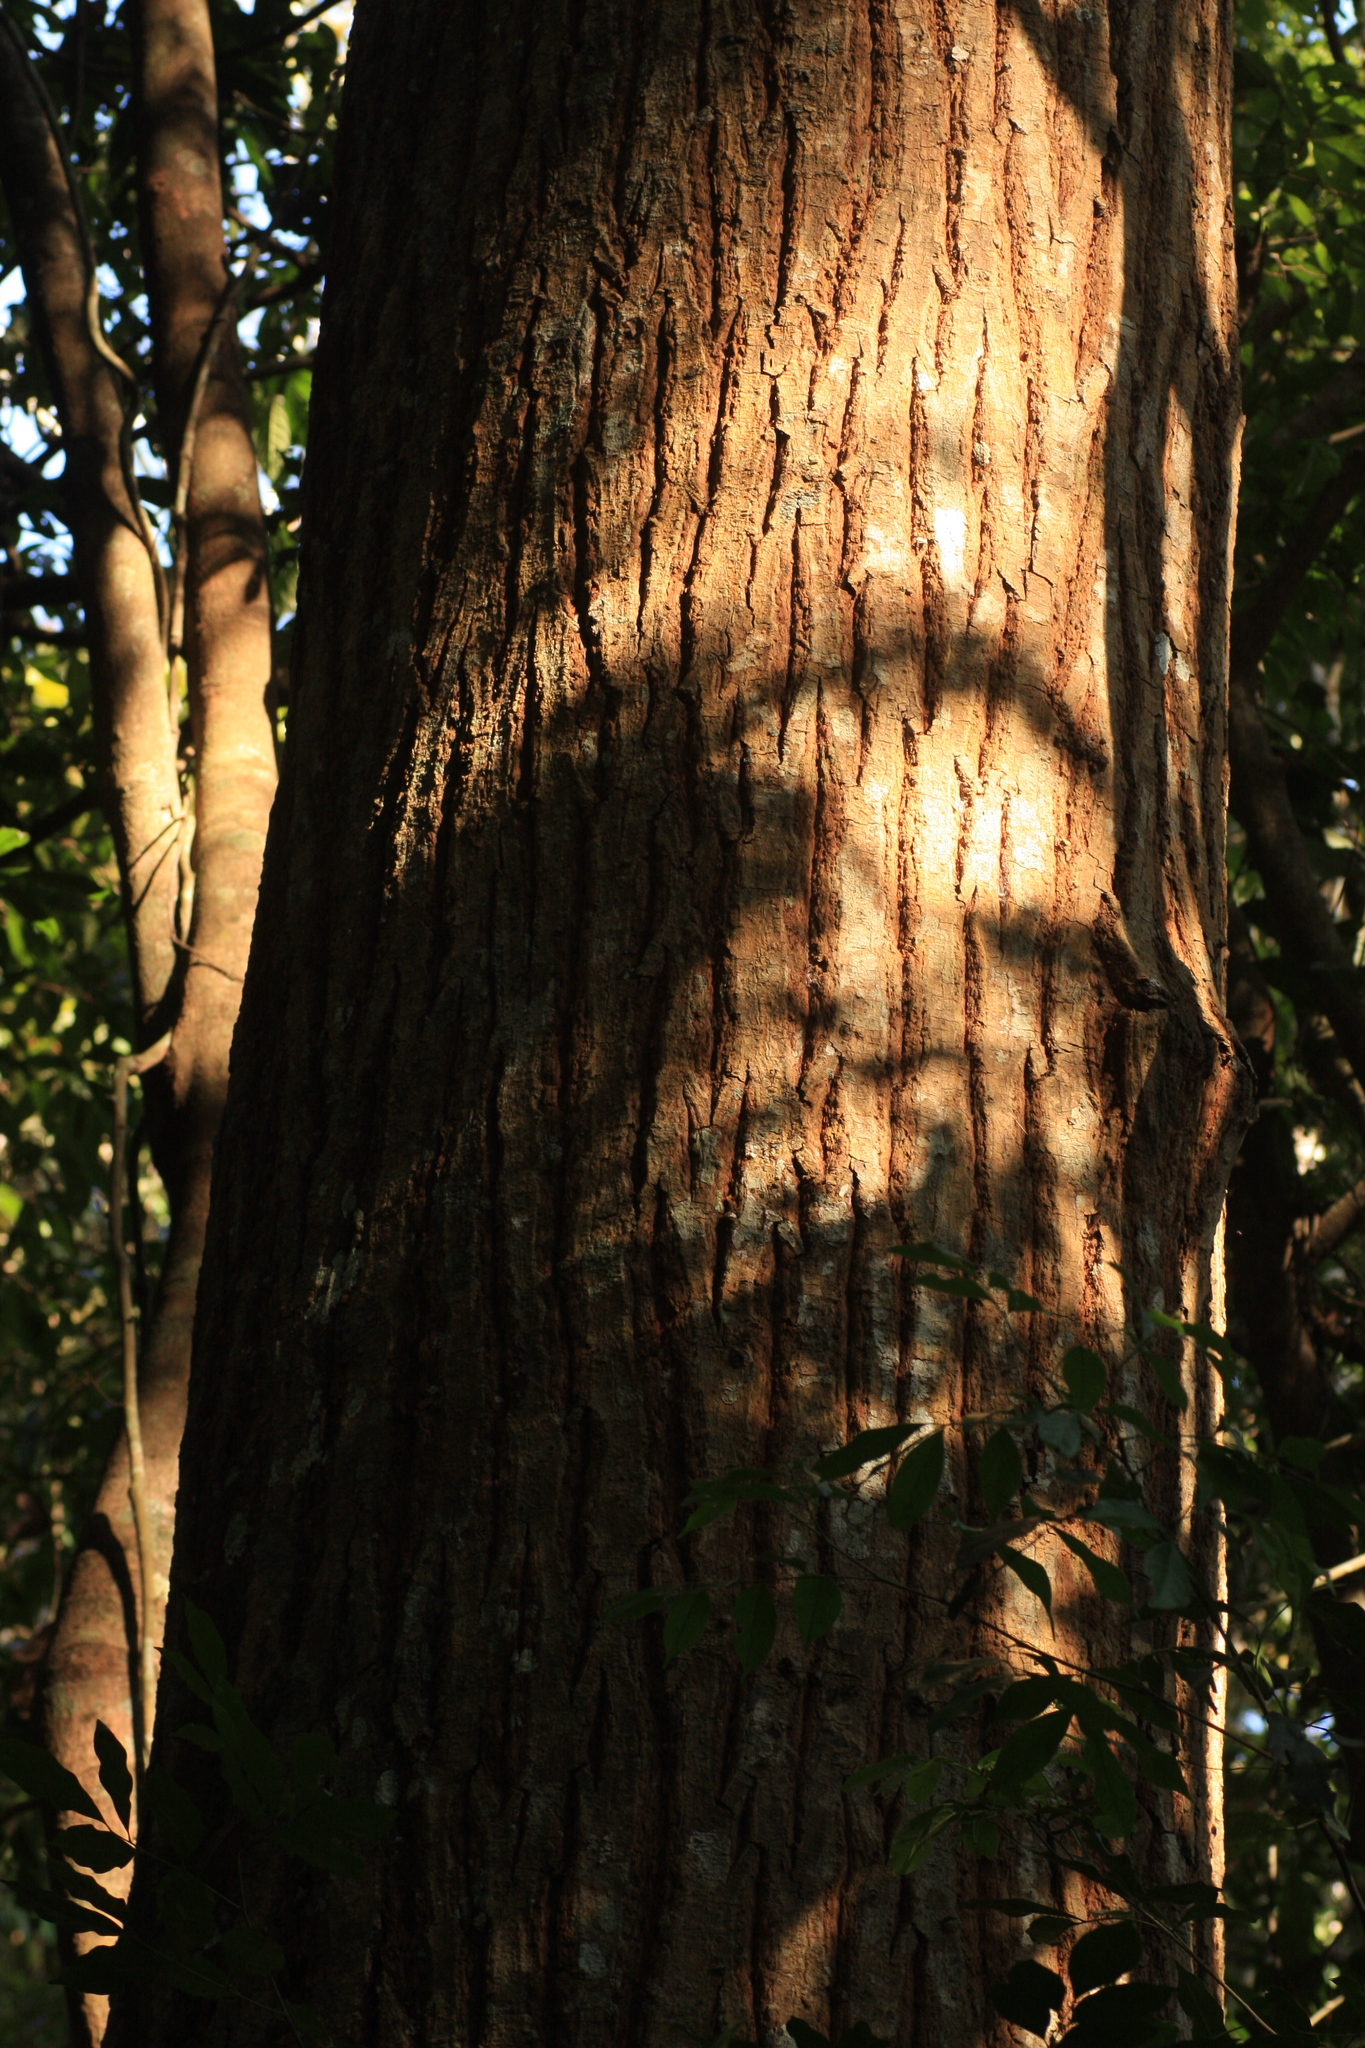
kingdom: Plantae
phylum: Tracheophyta
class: Magnoliopsida
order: Malpighiales
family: Calophyllaceae
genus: Calophyllum
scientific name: Calophyllum polyanthum
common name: Poonspar
